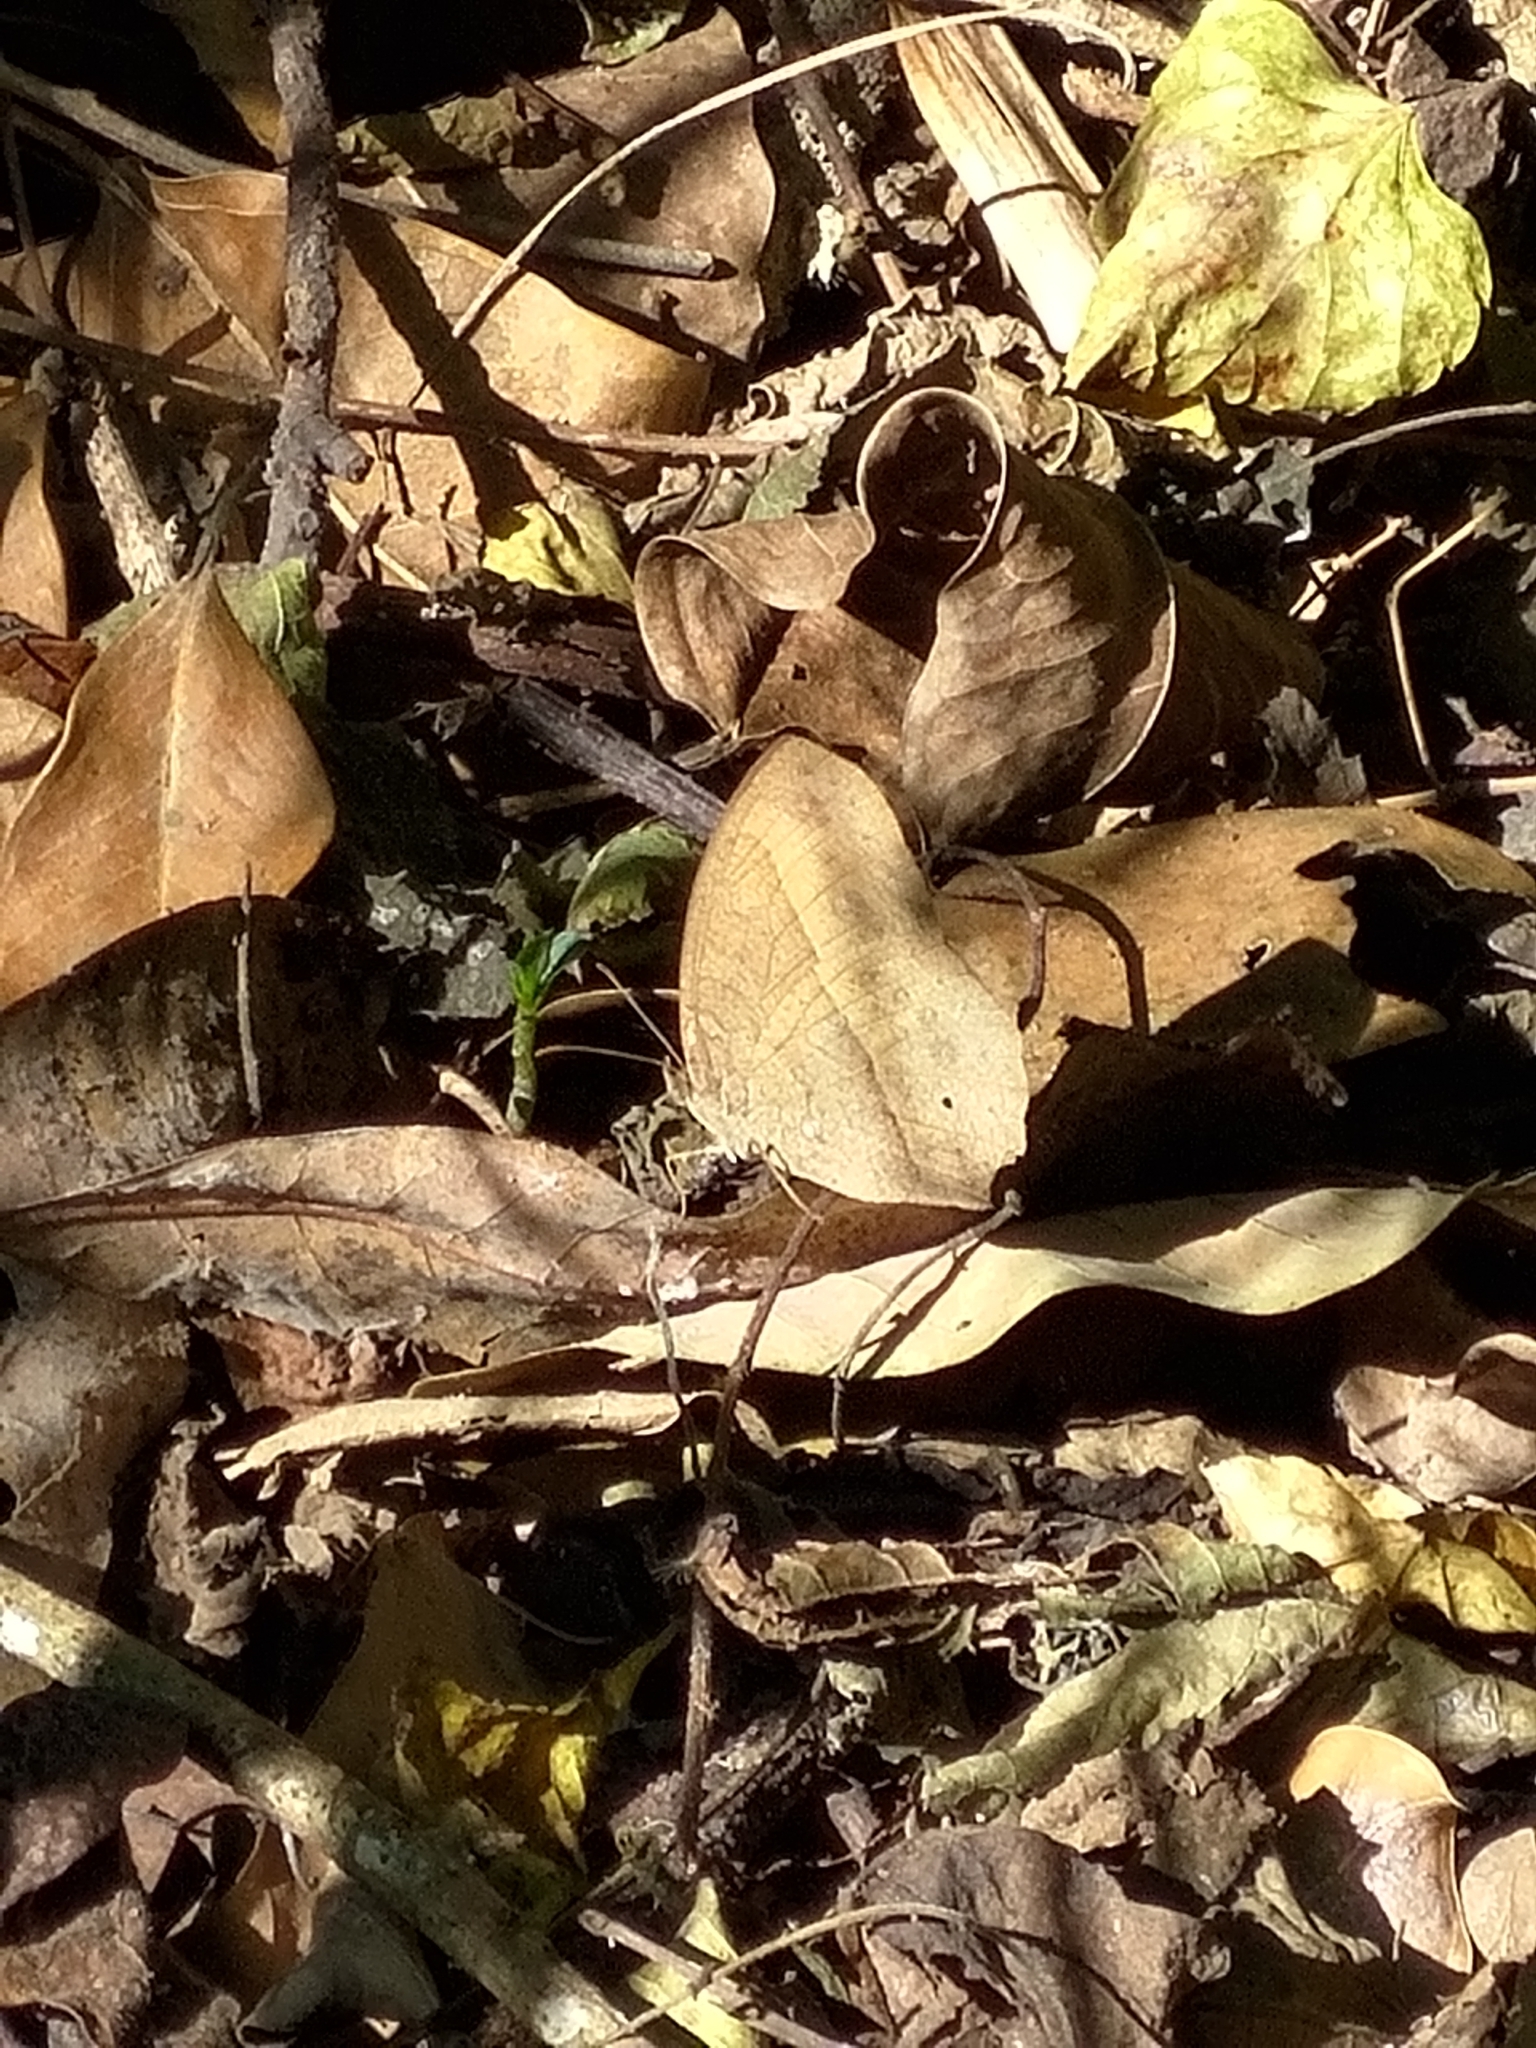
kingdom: Animalia
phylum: Arthropoda
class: Insecta
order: Lepidoptera
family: Nymphalidae
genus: Mycalesis
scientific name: Mycalesis horsfieldii
